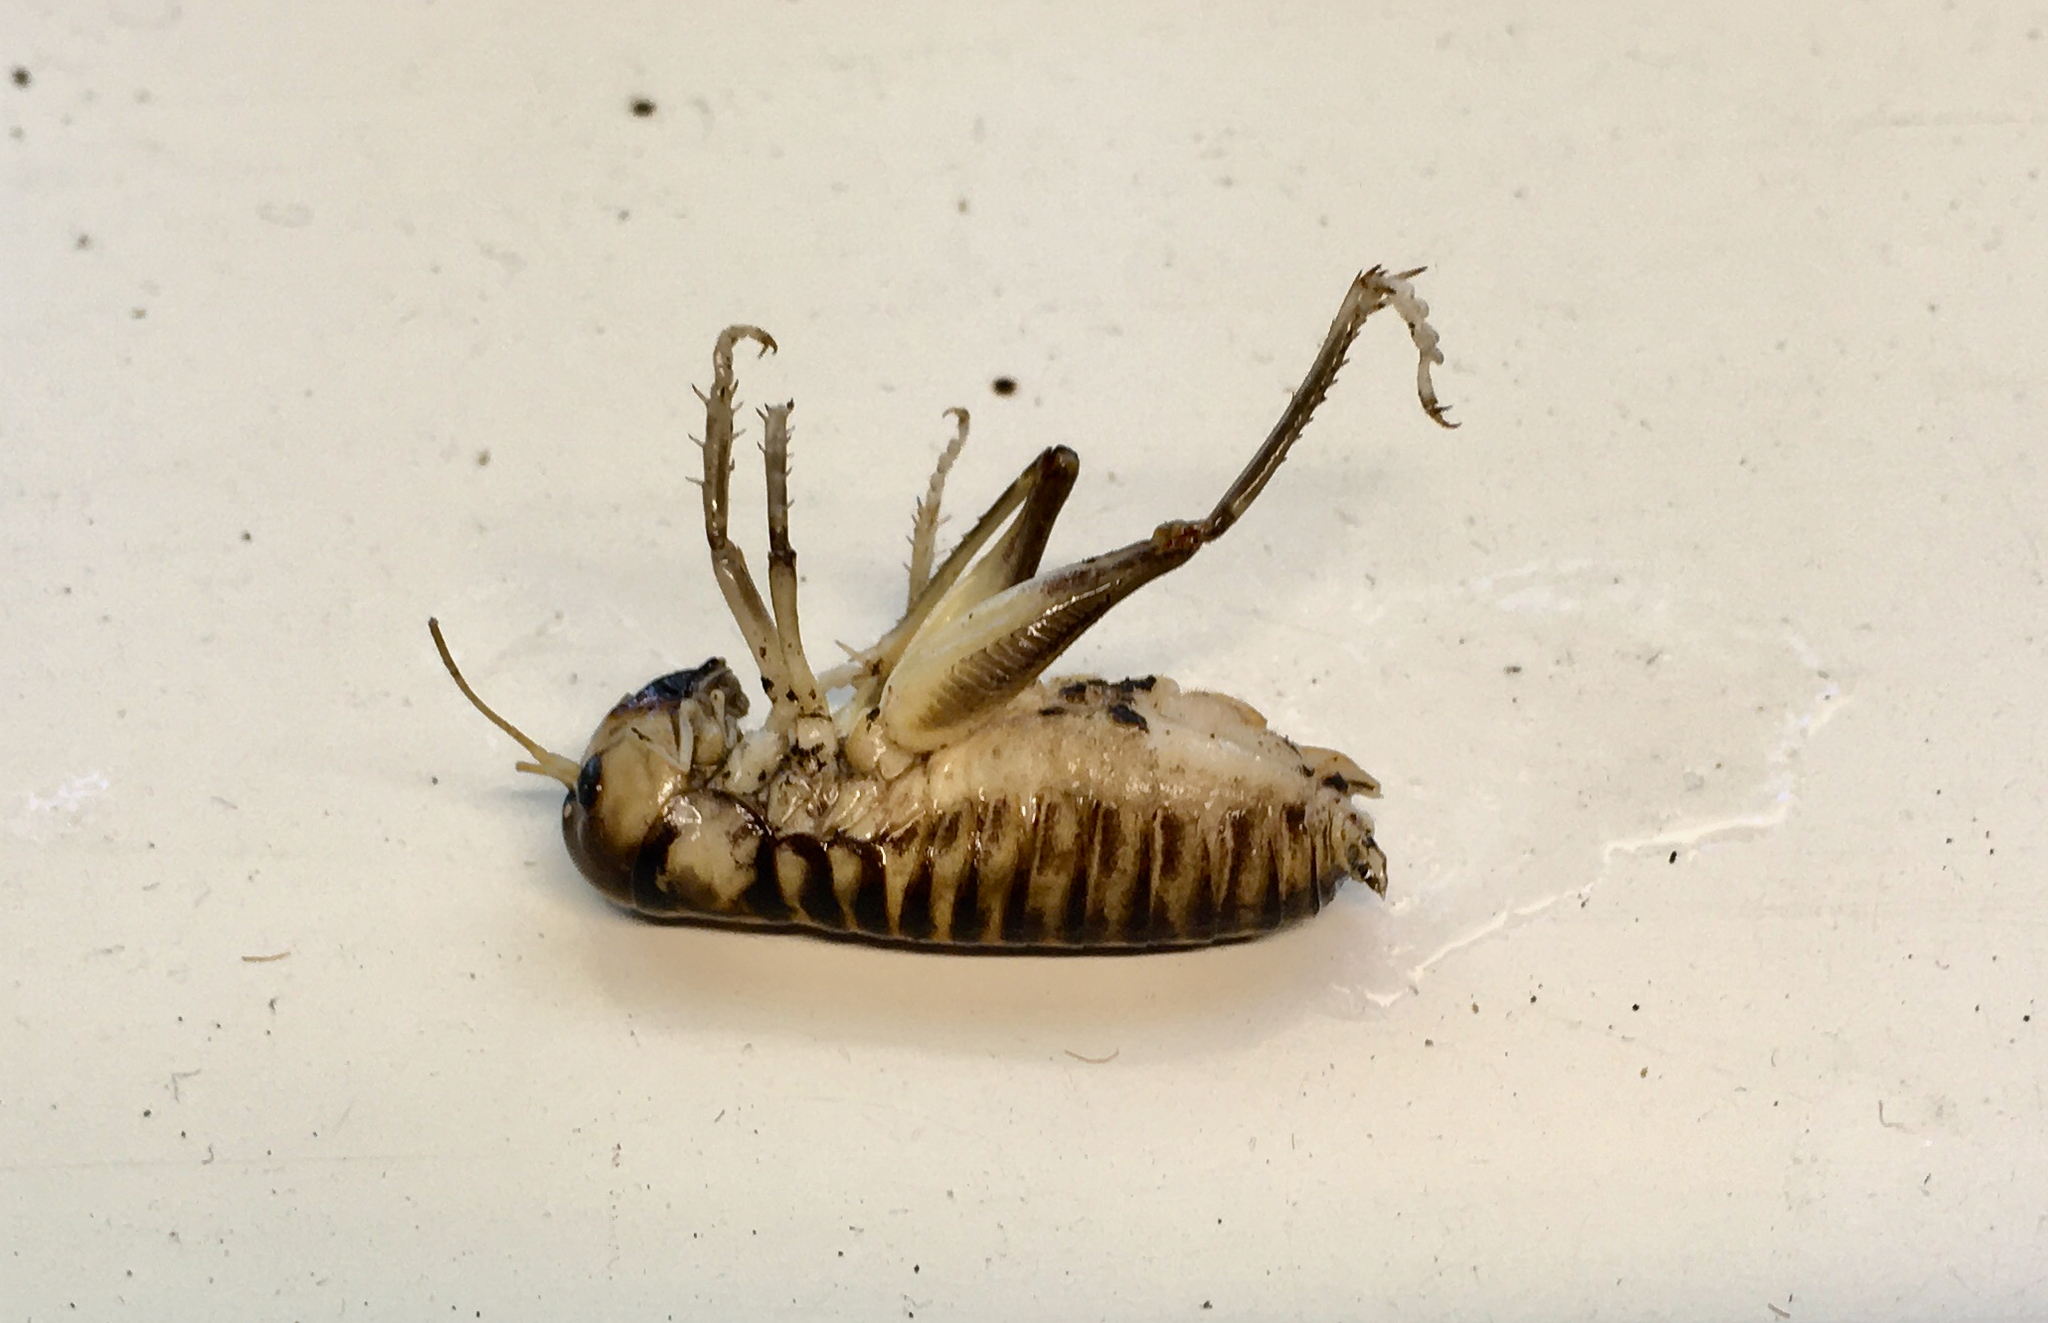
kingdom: Animalia
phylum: Arthropoda
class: Insecta
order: Orthoptera
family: Anostostomatidae
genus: Hemiandrus
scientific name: Hemiandrus bilobatus
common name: Wine wētā
